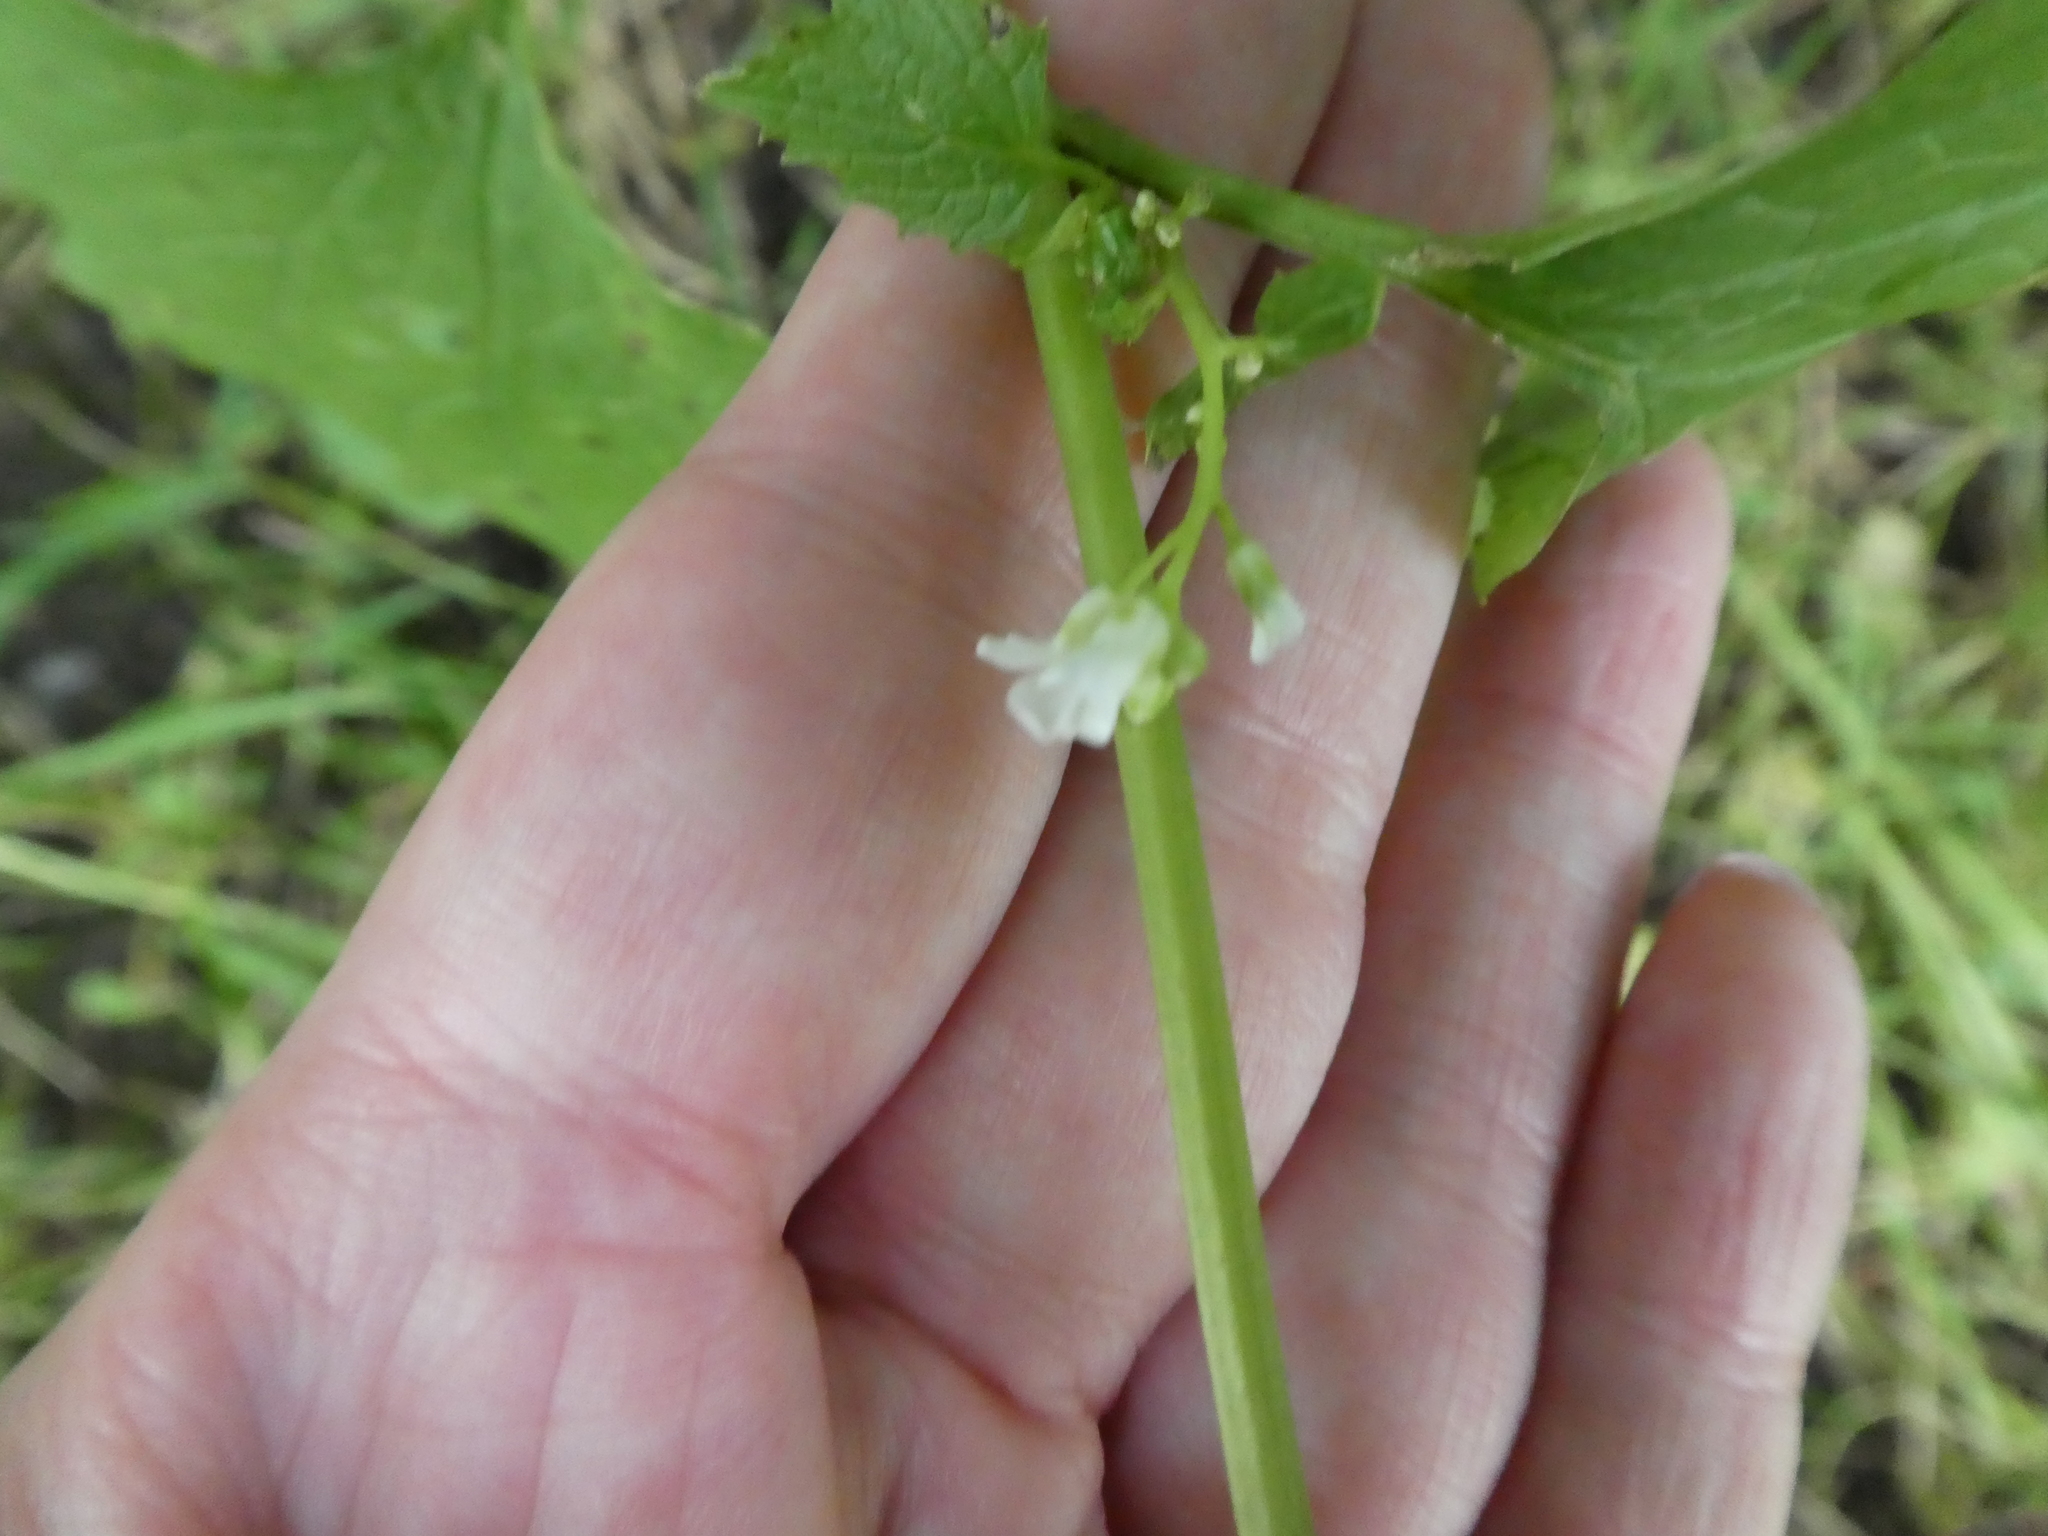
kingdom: Plantae
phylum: Tracheophyta
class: Magnoliopsida
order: Brassicales
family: Brassicaceae
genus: Alliaria
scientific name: Alliaria petiolata
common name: Garlic mustard
